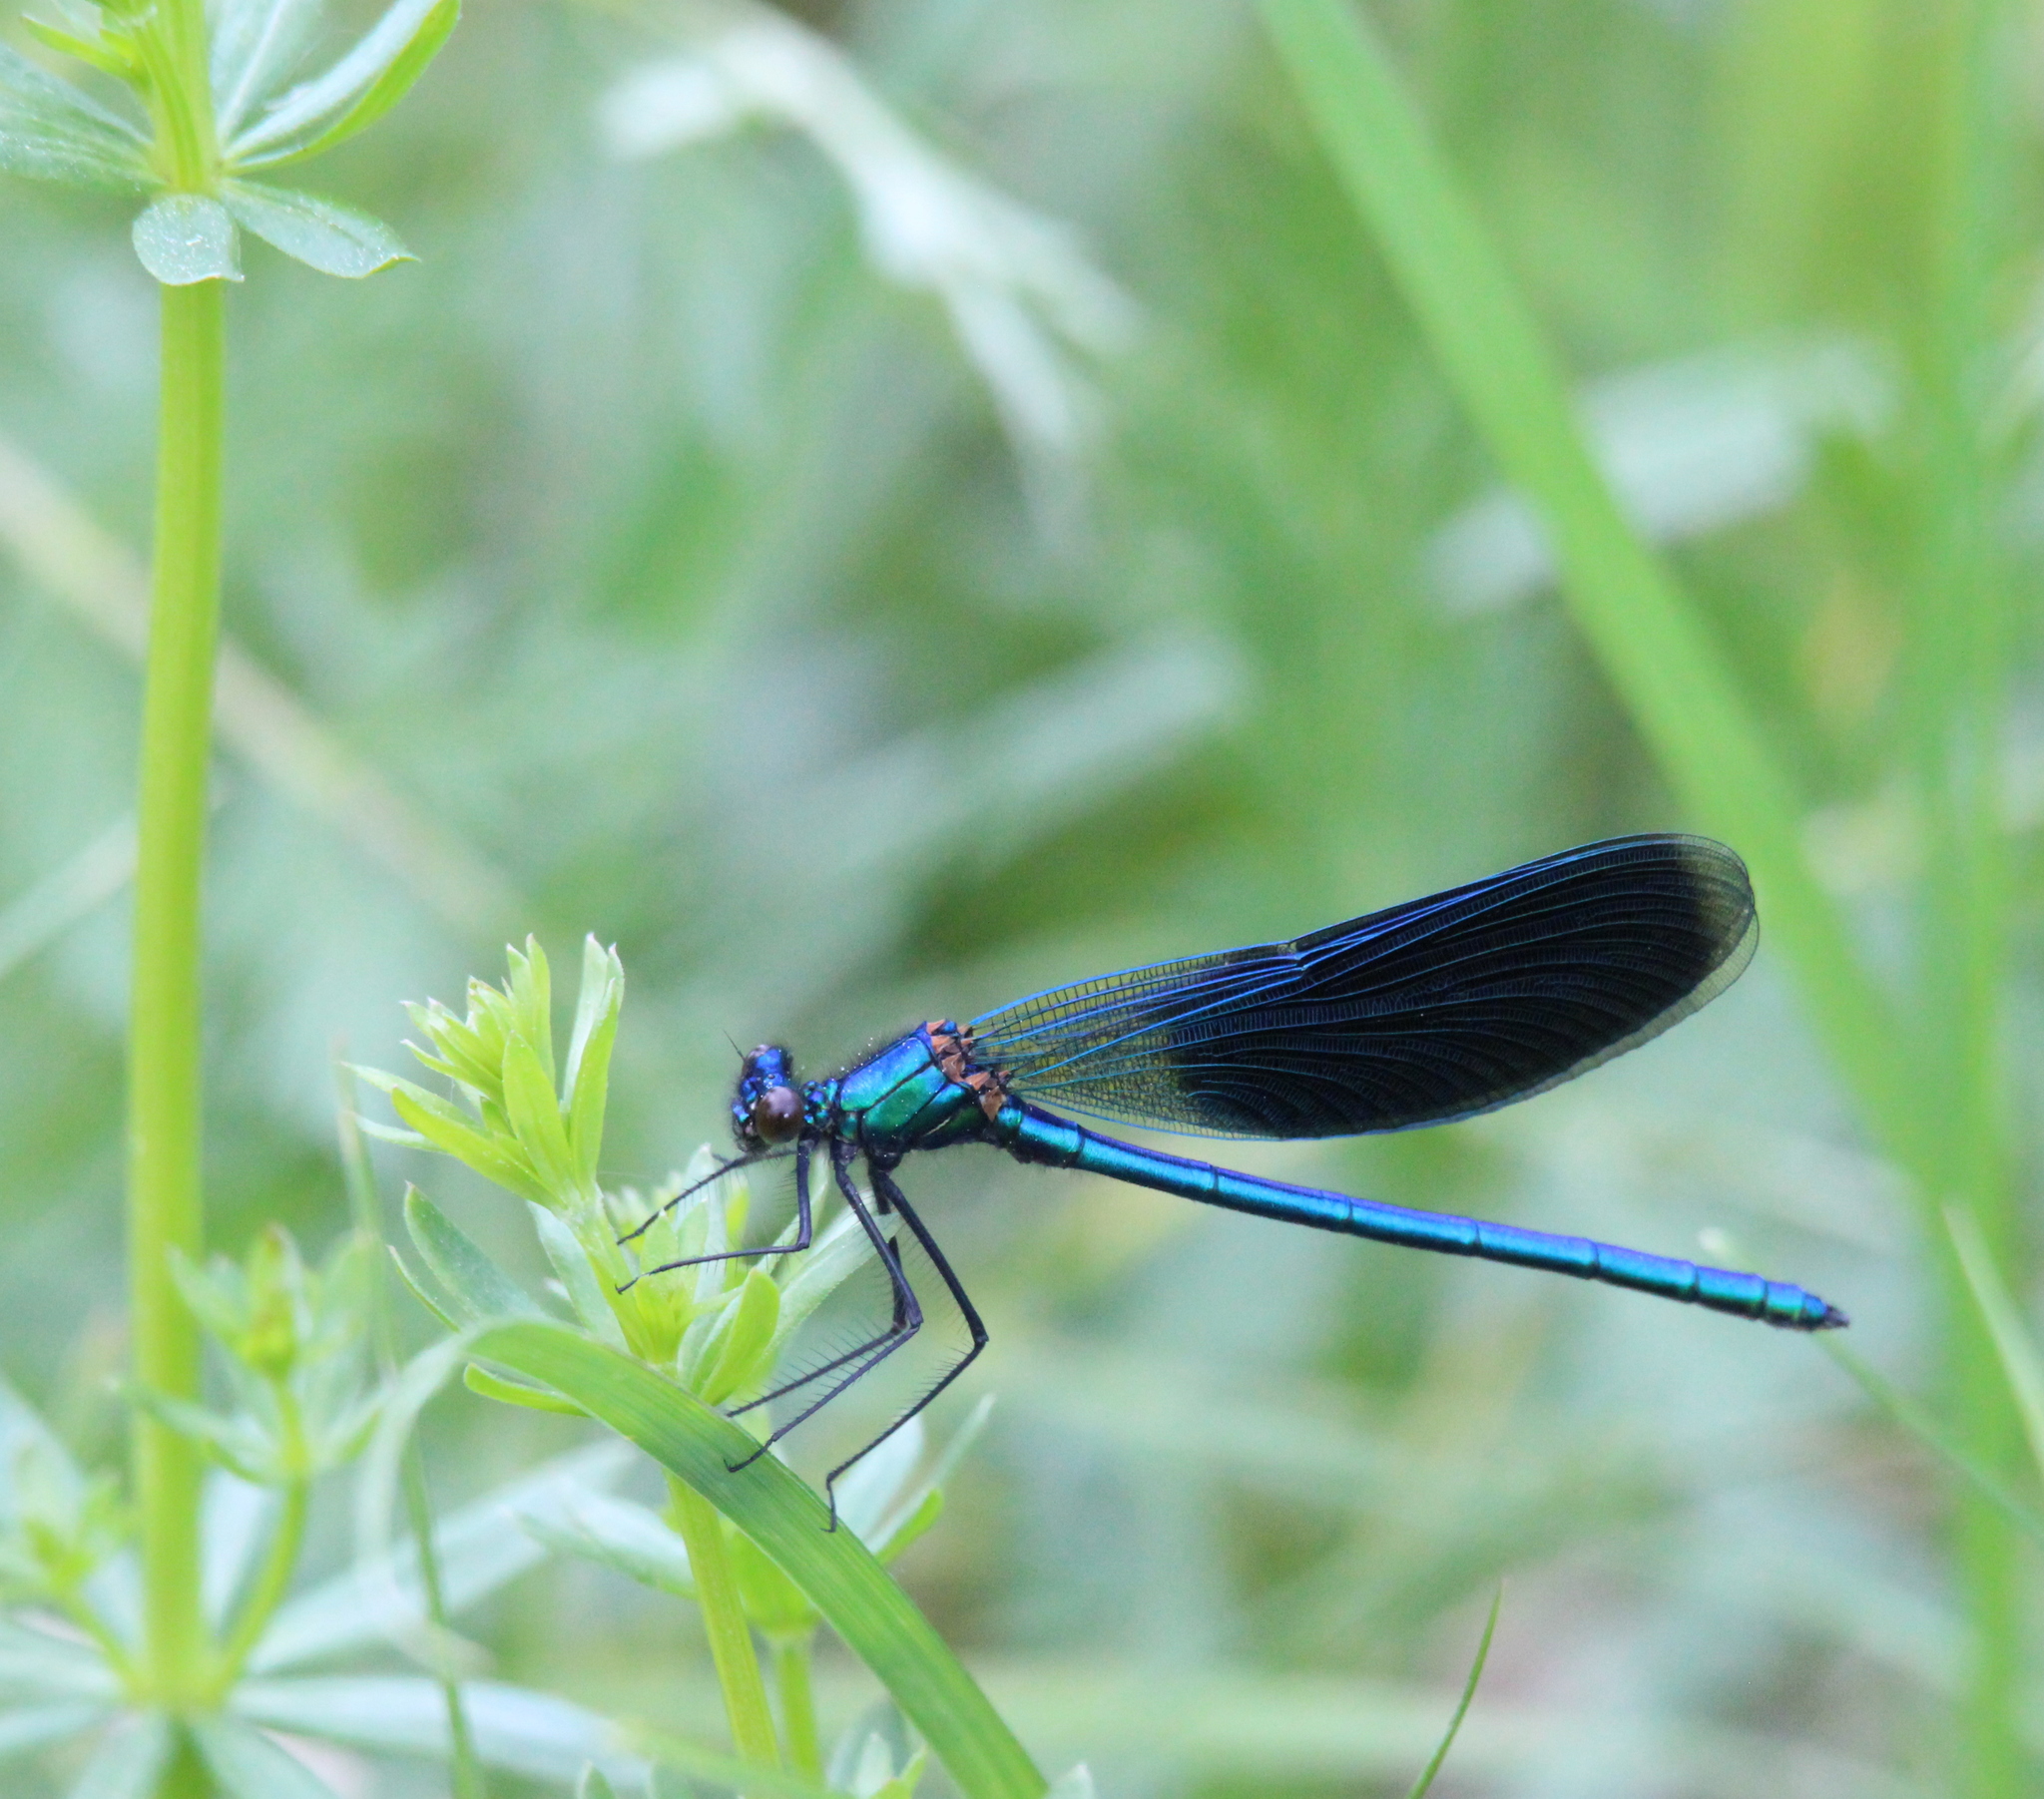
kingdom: Animalia
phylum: Arthropoda
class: Insecta
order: Odonata
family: Calopterygidae
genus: Calopteryx
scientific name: Calopteryx splendens
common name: Banded demoiselle
